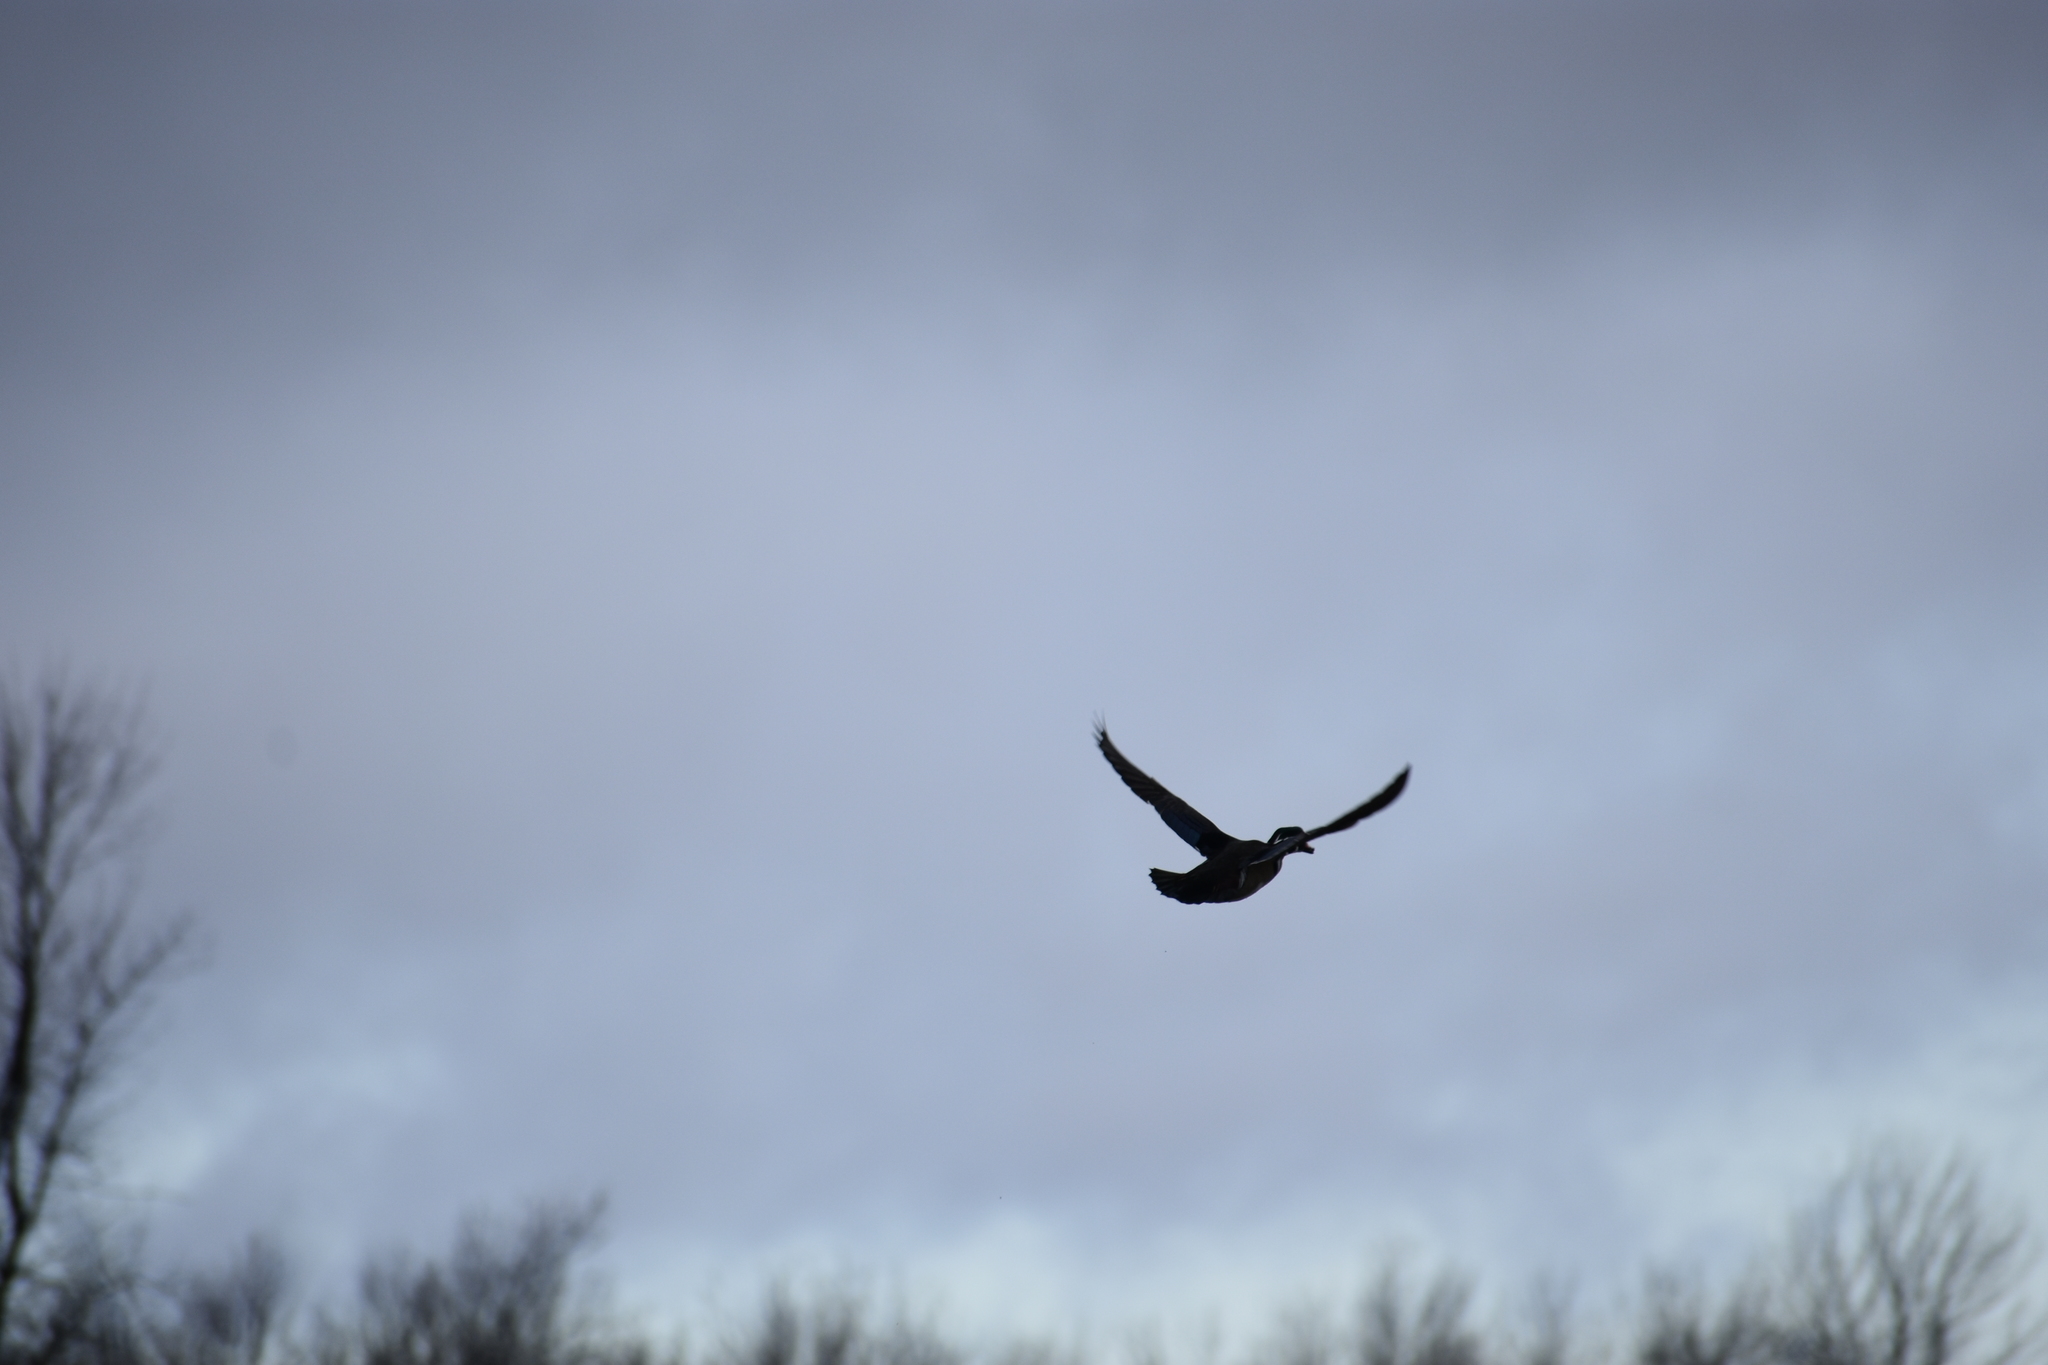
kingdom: Animalia
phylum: Chordata
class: Aves
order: Anseriformes
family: Anatidae
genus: Aix
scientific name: Aix sponsa
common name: Wood duck
